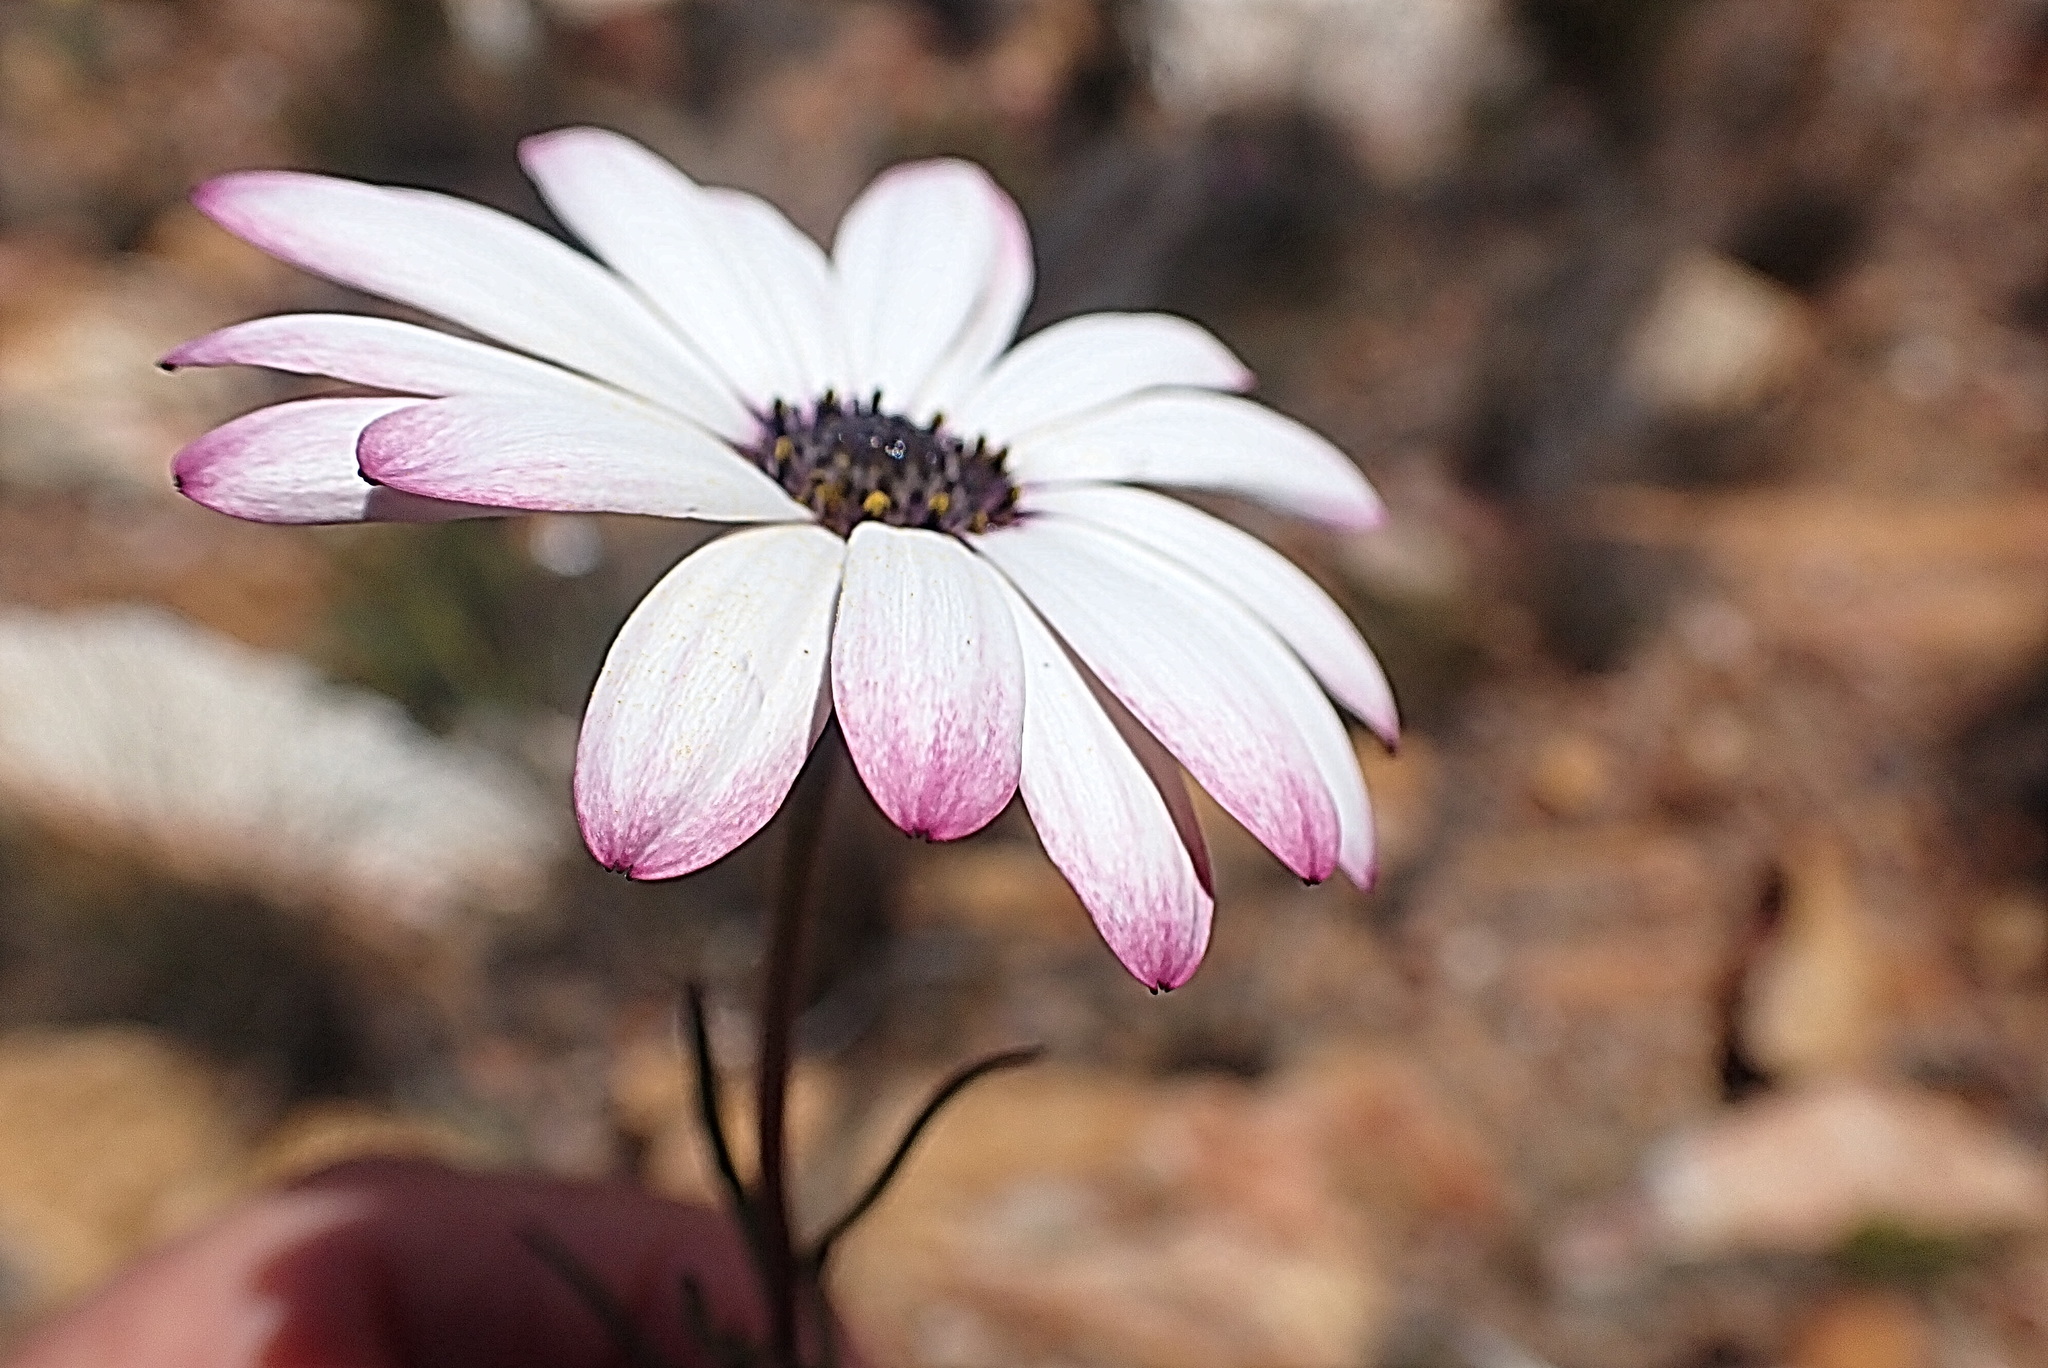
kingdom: Plantae
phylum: Tracheophyta
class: Magnoliopsida
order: Asterales
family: Asteraceae
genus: Dimorphotheca
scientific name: Dimorphotheca montana
